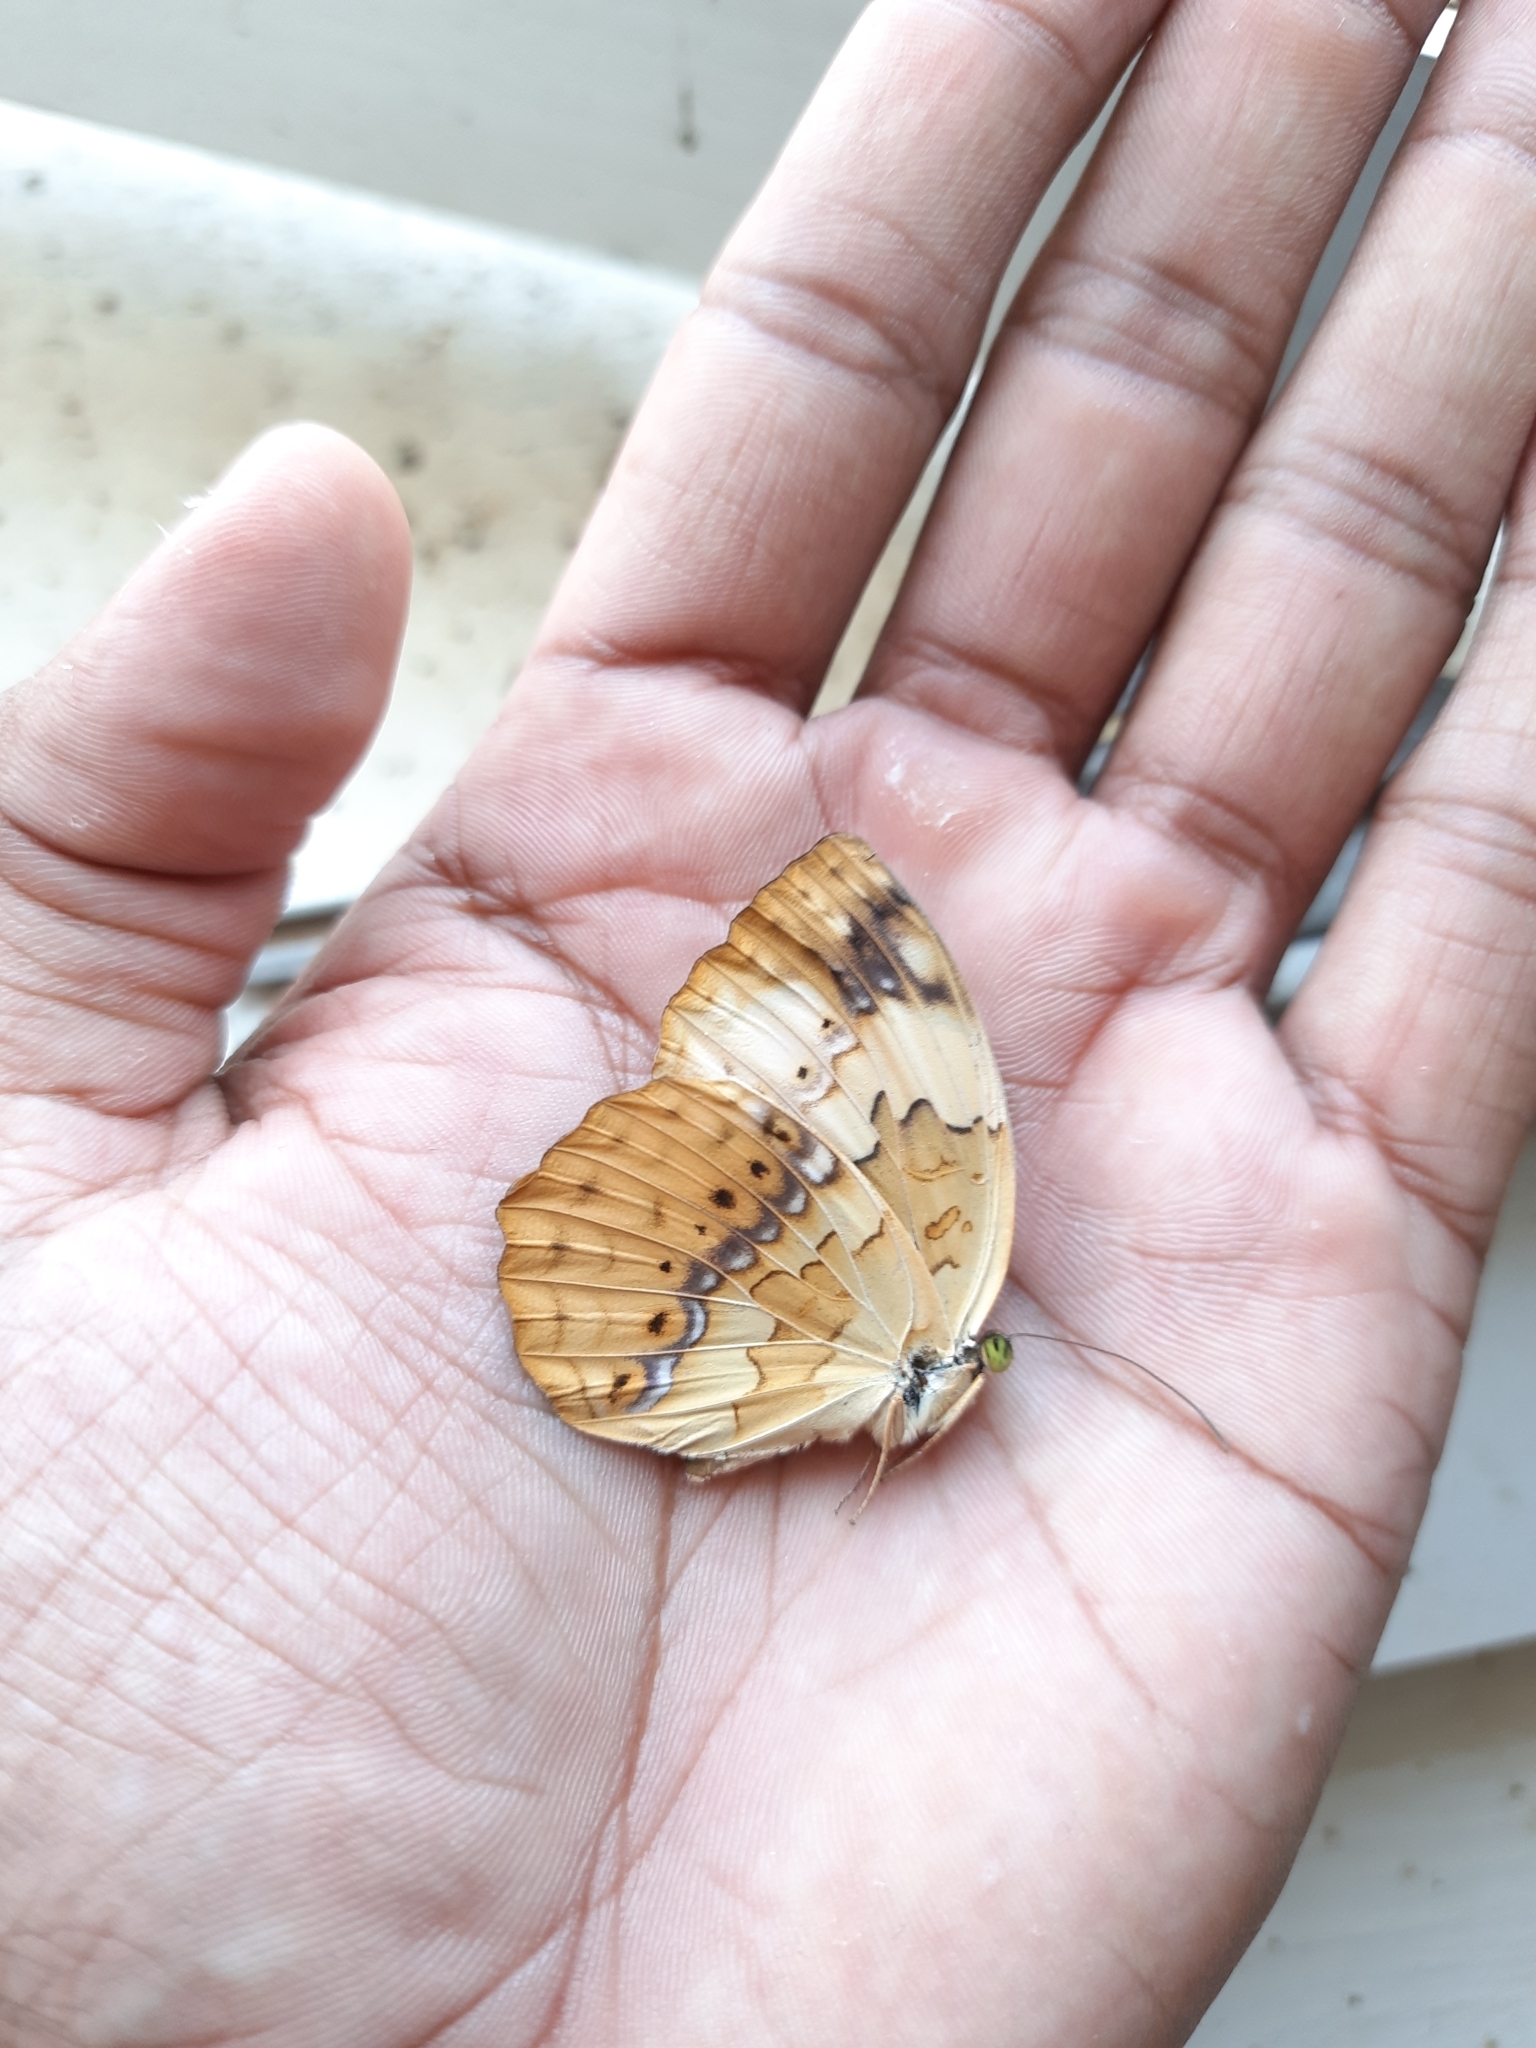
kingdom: Animalia
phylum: Arthropoda
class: Insecta
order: Lepidoptera
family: Nymphalidae
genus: Cupha
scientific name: Cupha erymanthis
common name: Rustic
